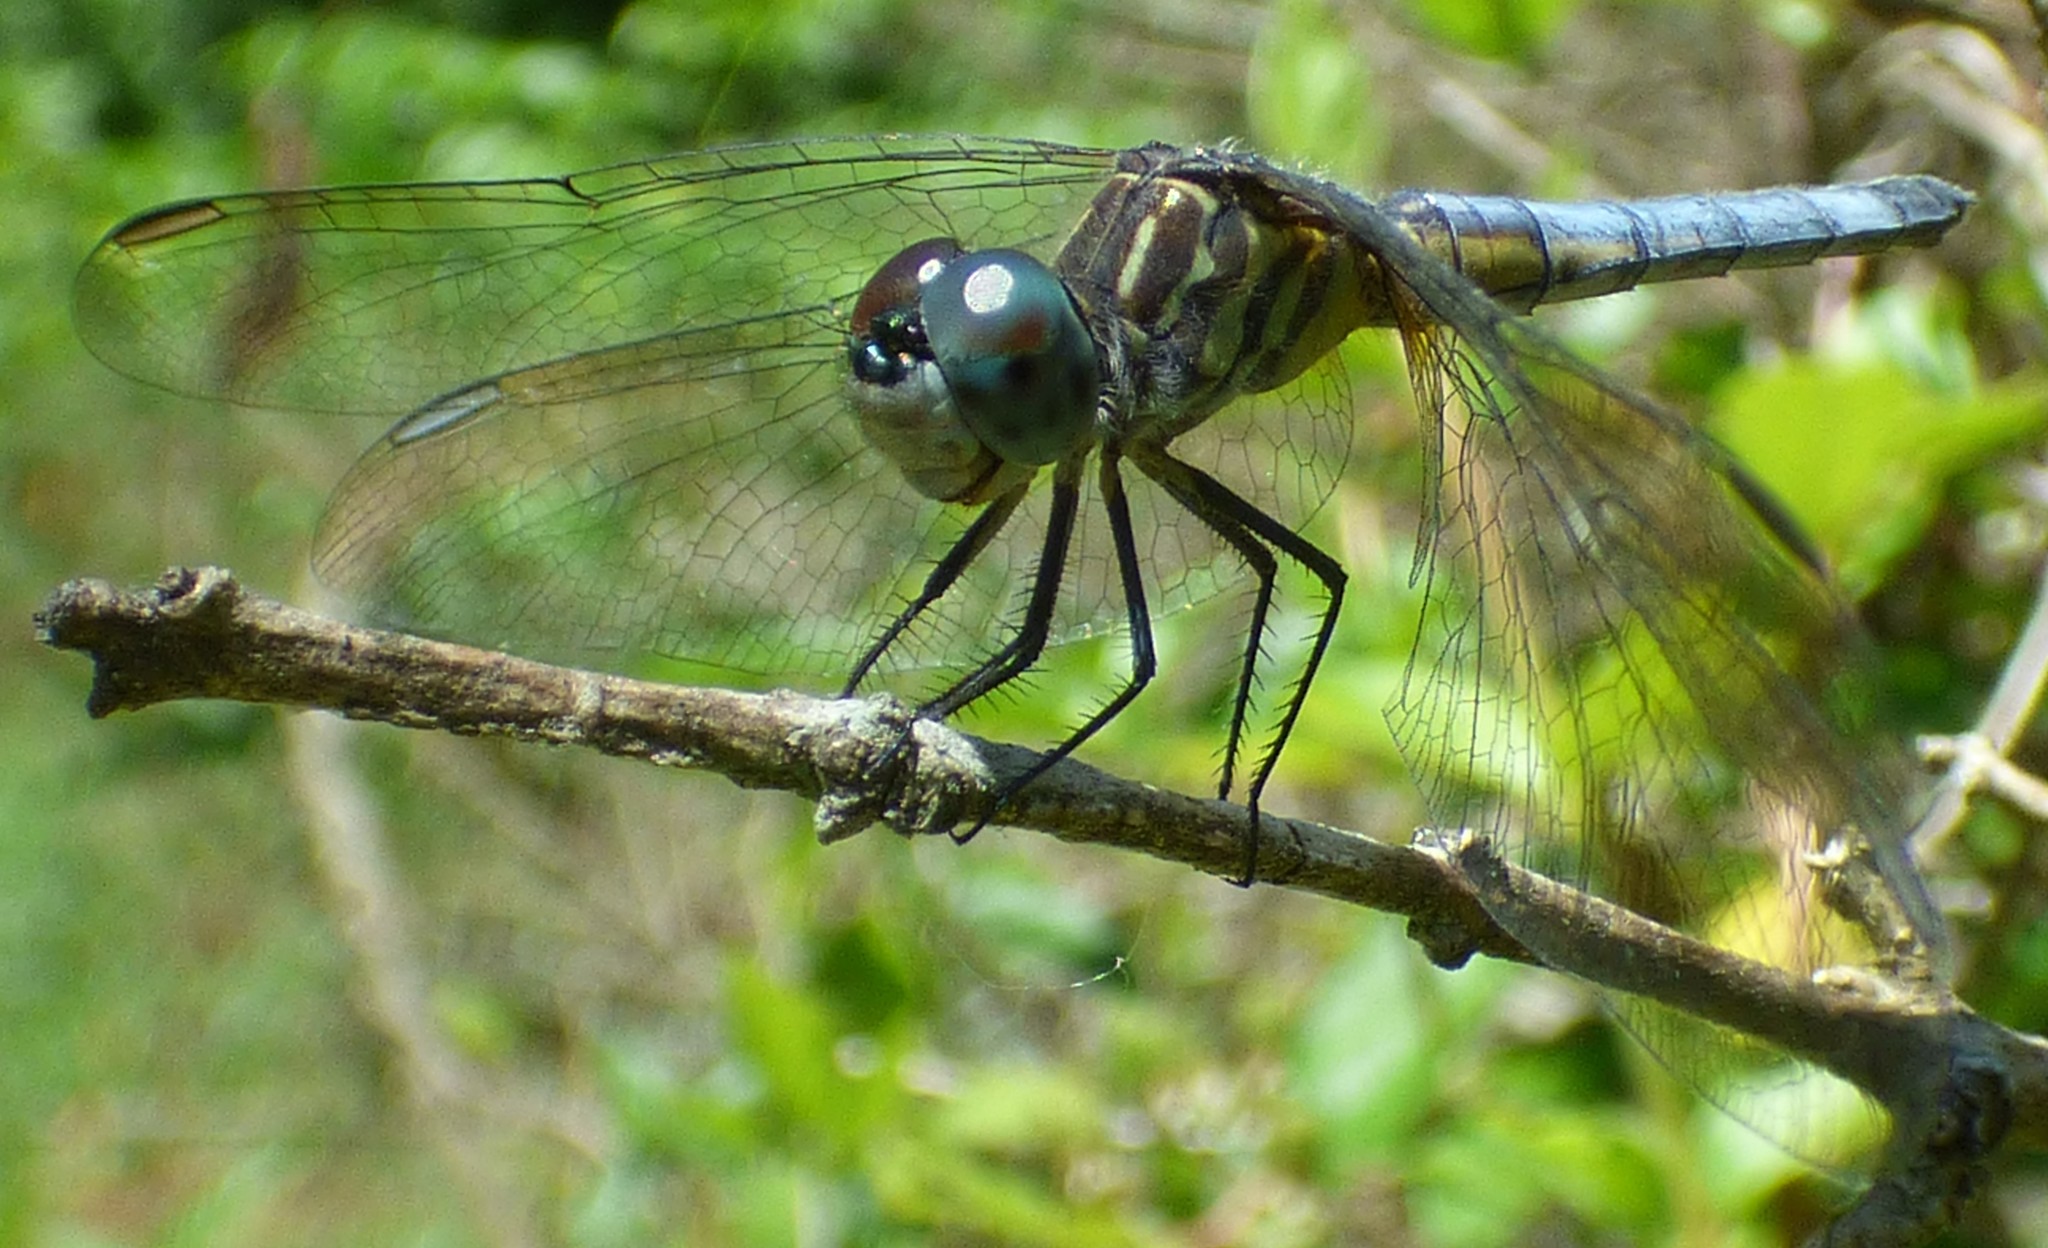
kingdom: Animalia
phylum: Arthropoda
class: Insecta
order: Odonata
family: Libellulidae
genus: Pachydiplax
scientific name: Pachydiplax longipennis
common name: Blue dasher
